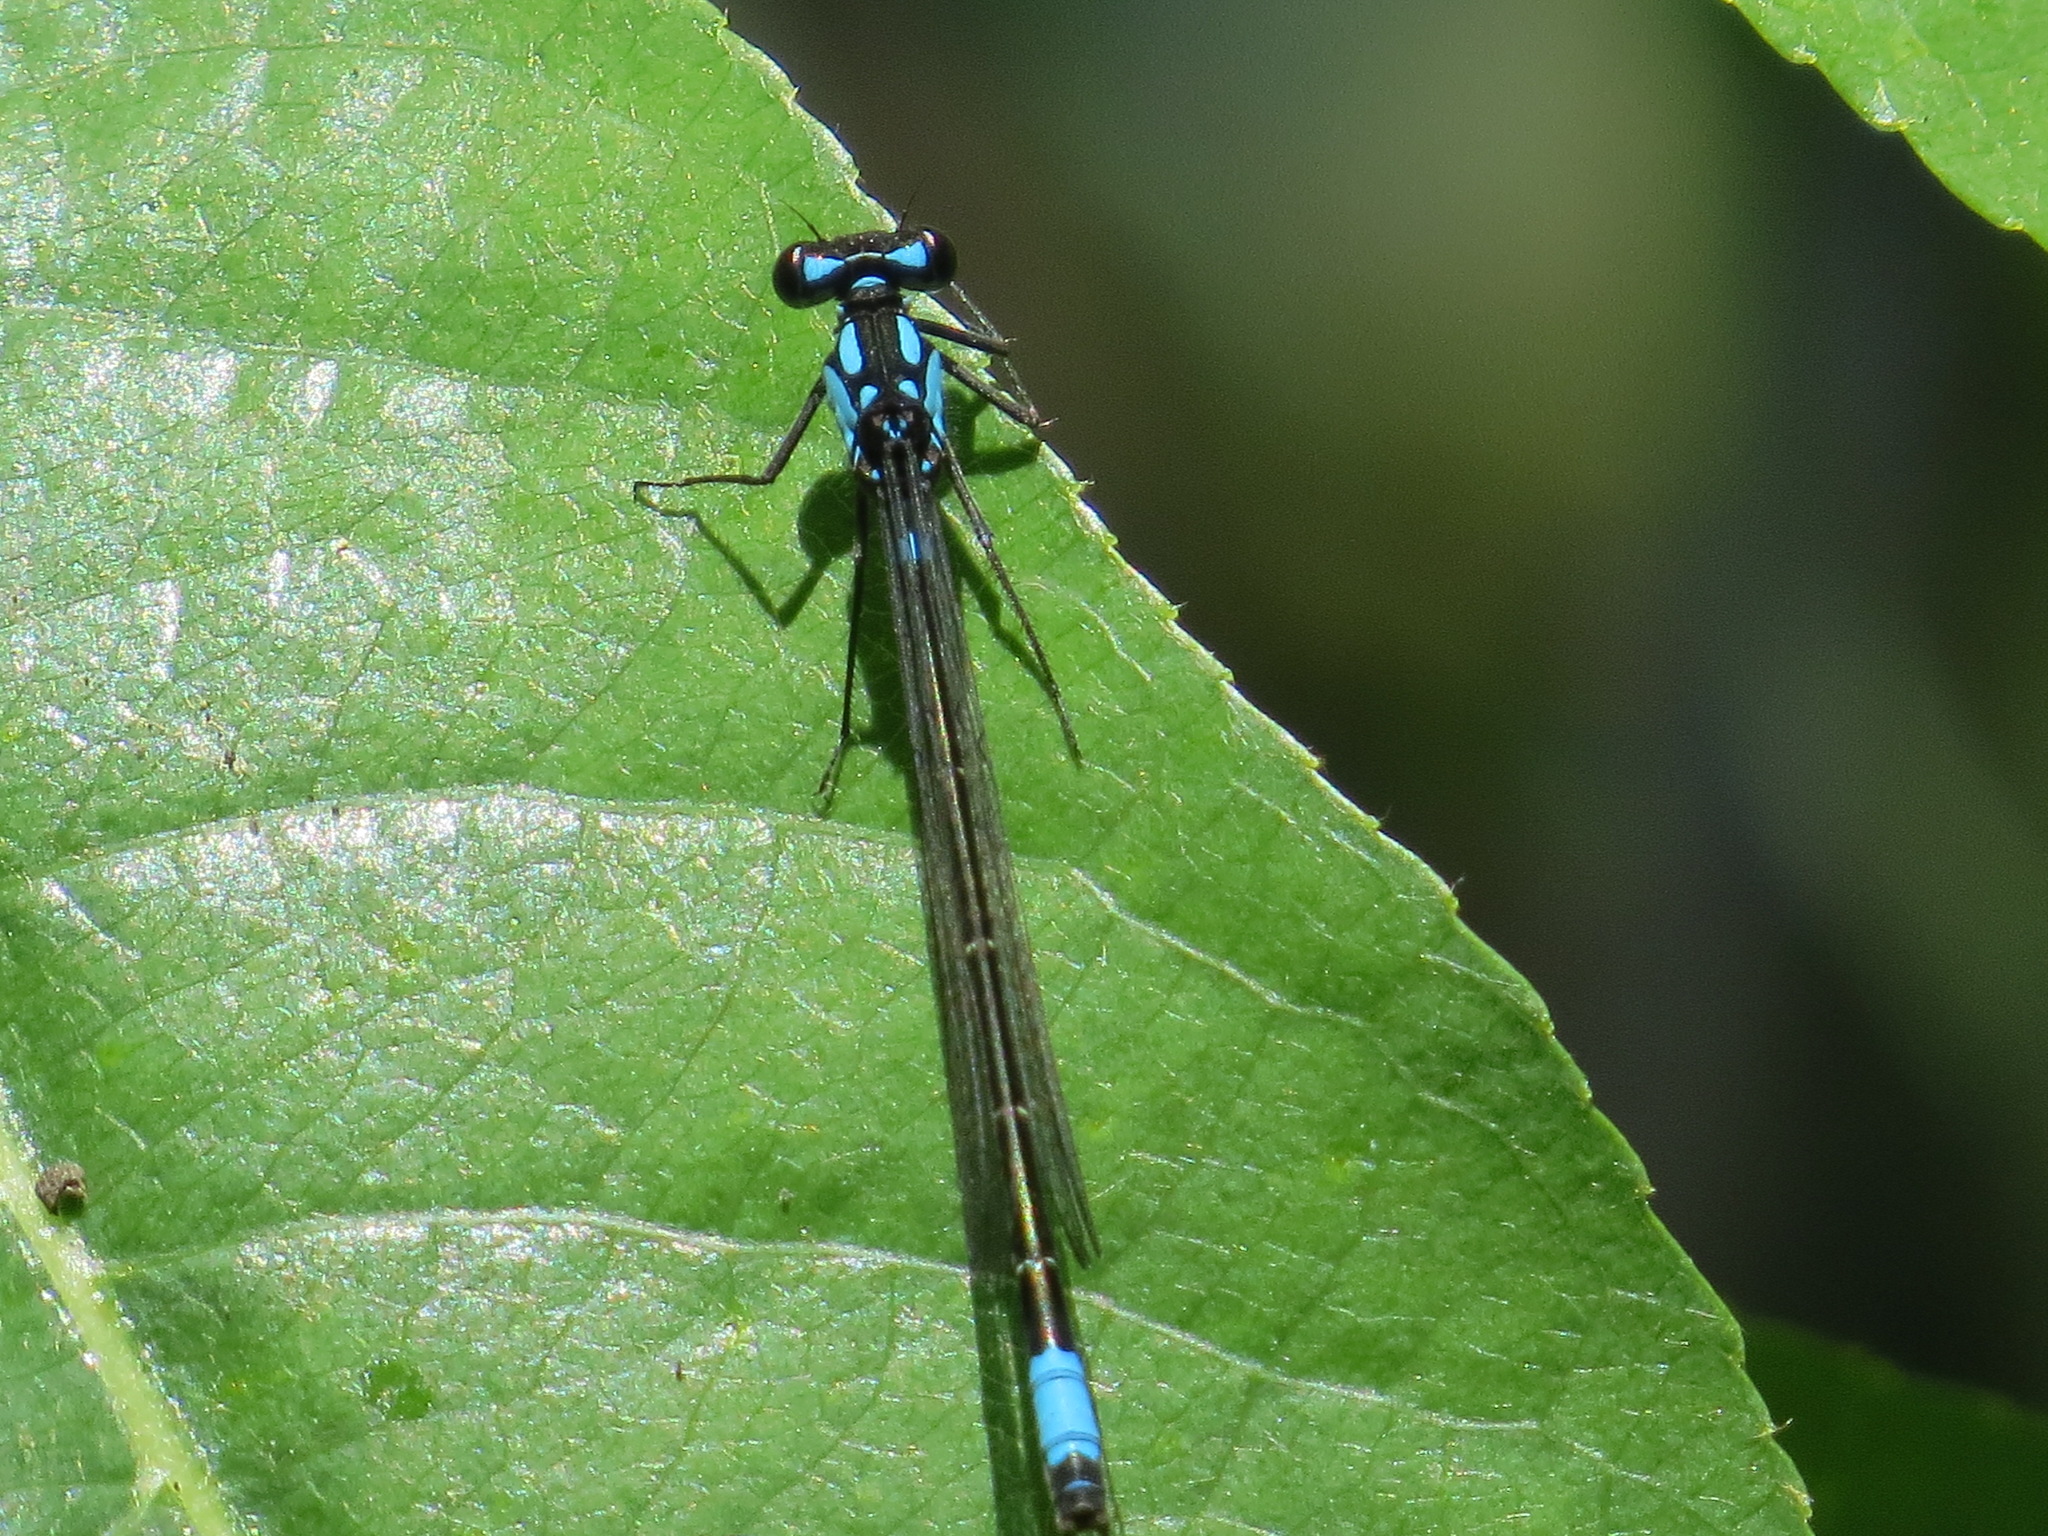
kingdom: Animalia
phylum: Arthropoda
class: Insecta
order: Odonata
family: Coenagrionidae
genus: Zoniagrion
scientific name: Zoniagrion exclamationis
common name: Exclamation damsel
